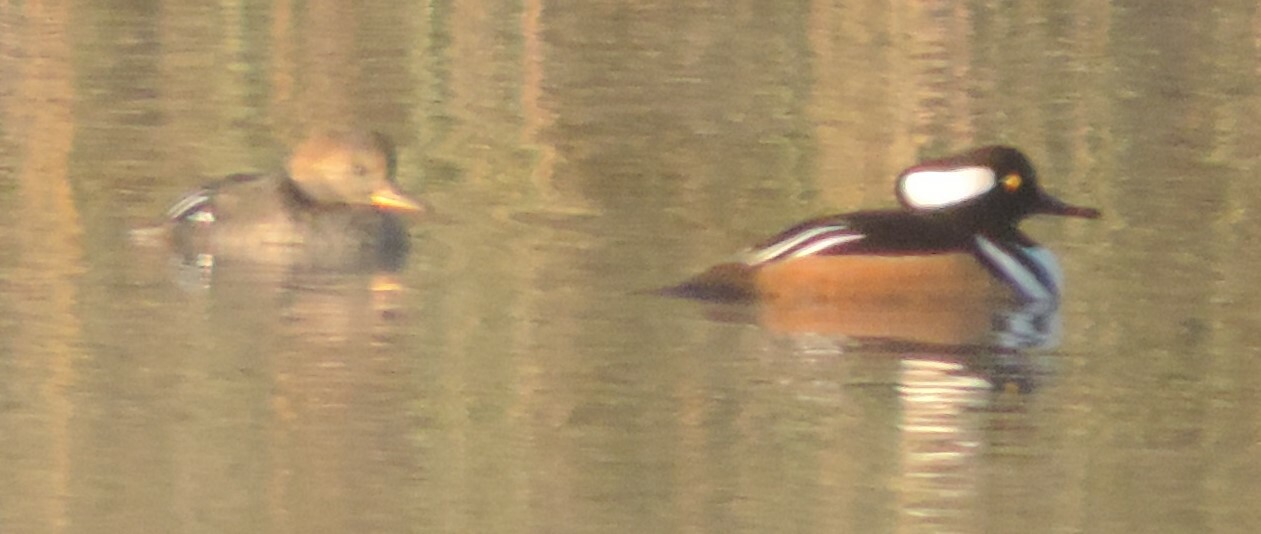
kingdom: Animalia
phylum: Chordata
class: Aves
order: Anseriformes
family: Anatidae
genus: Lophodytes
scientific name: Lophodytes cucullatus
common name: Hooded merganser
